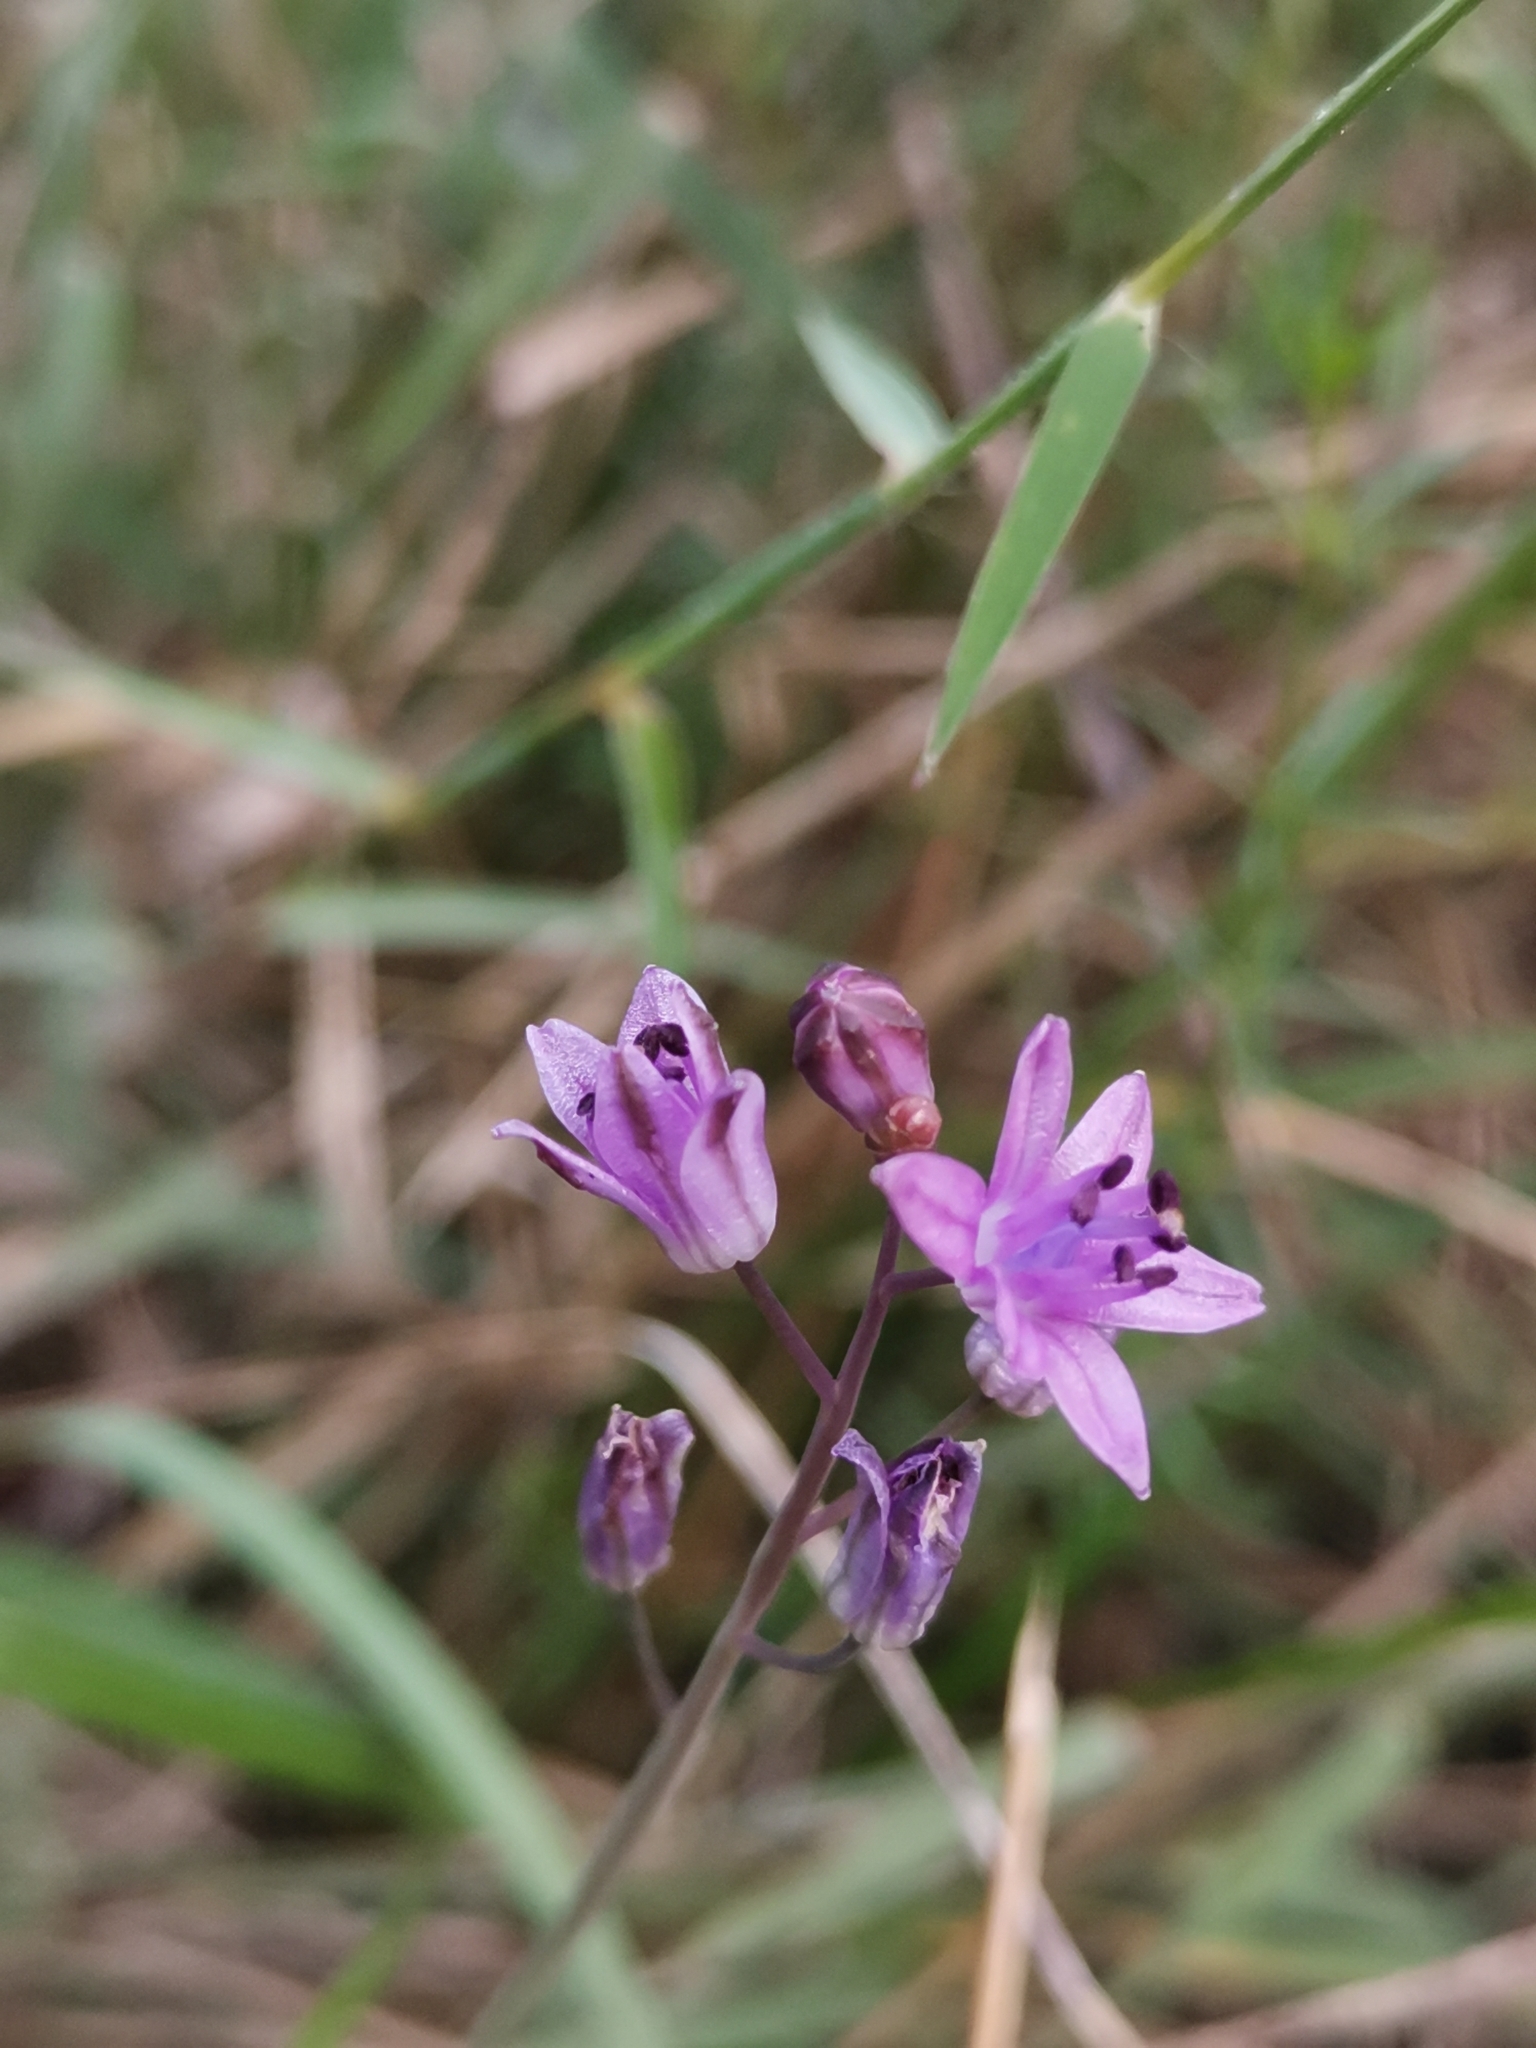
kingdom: Plantae
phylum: Tracheophyta
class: Liliopsida
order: Asparagales
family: Asparagaceae
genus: Prospero
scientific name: Prospero elisae
